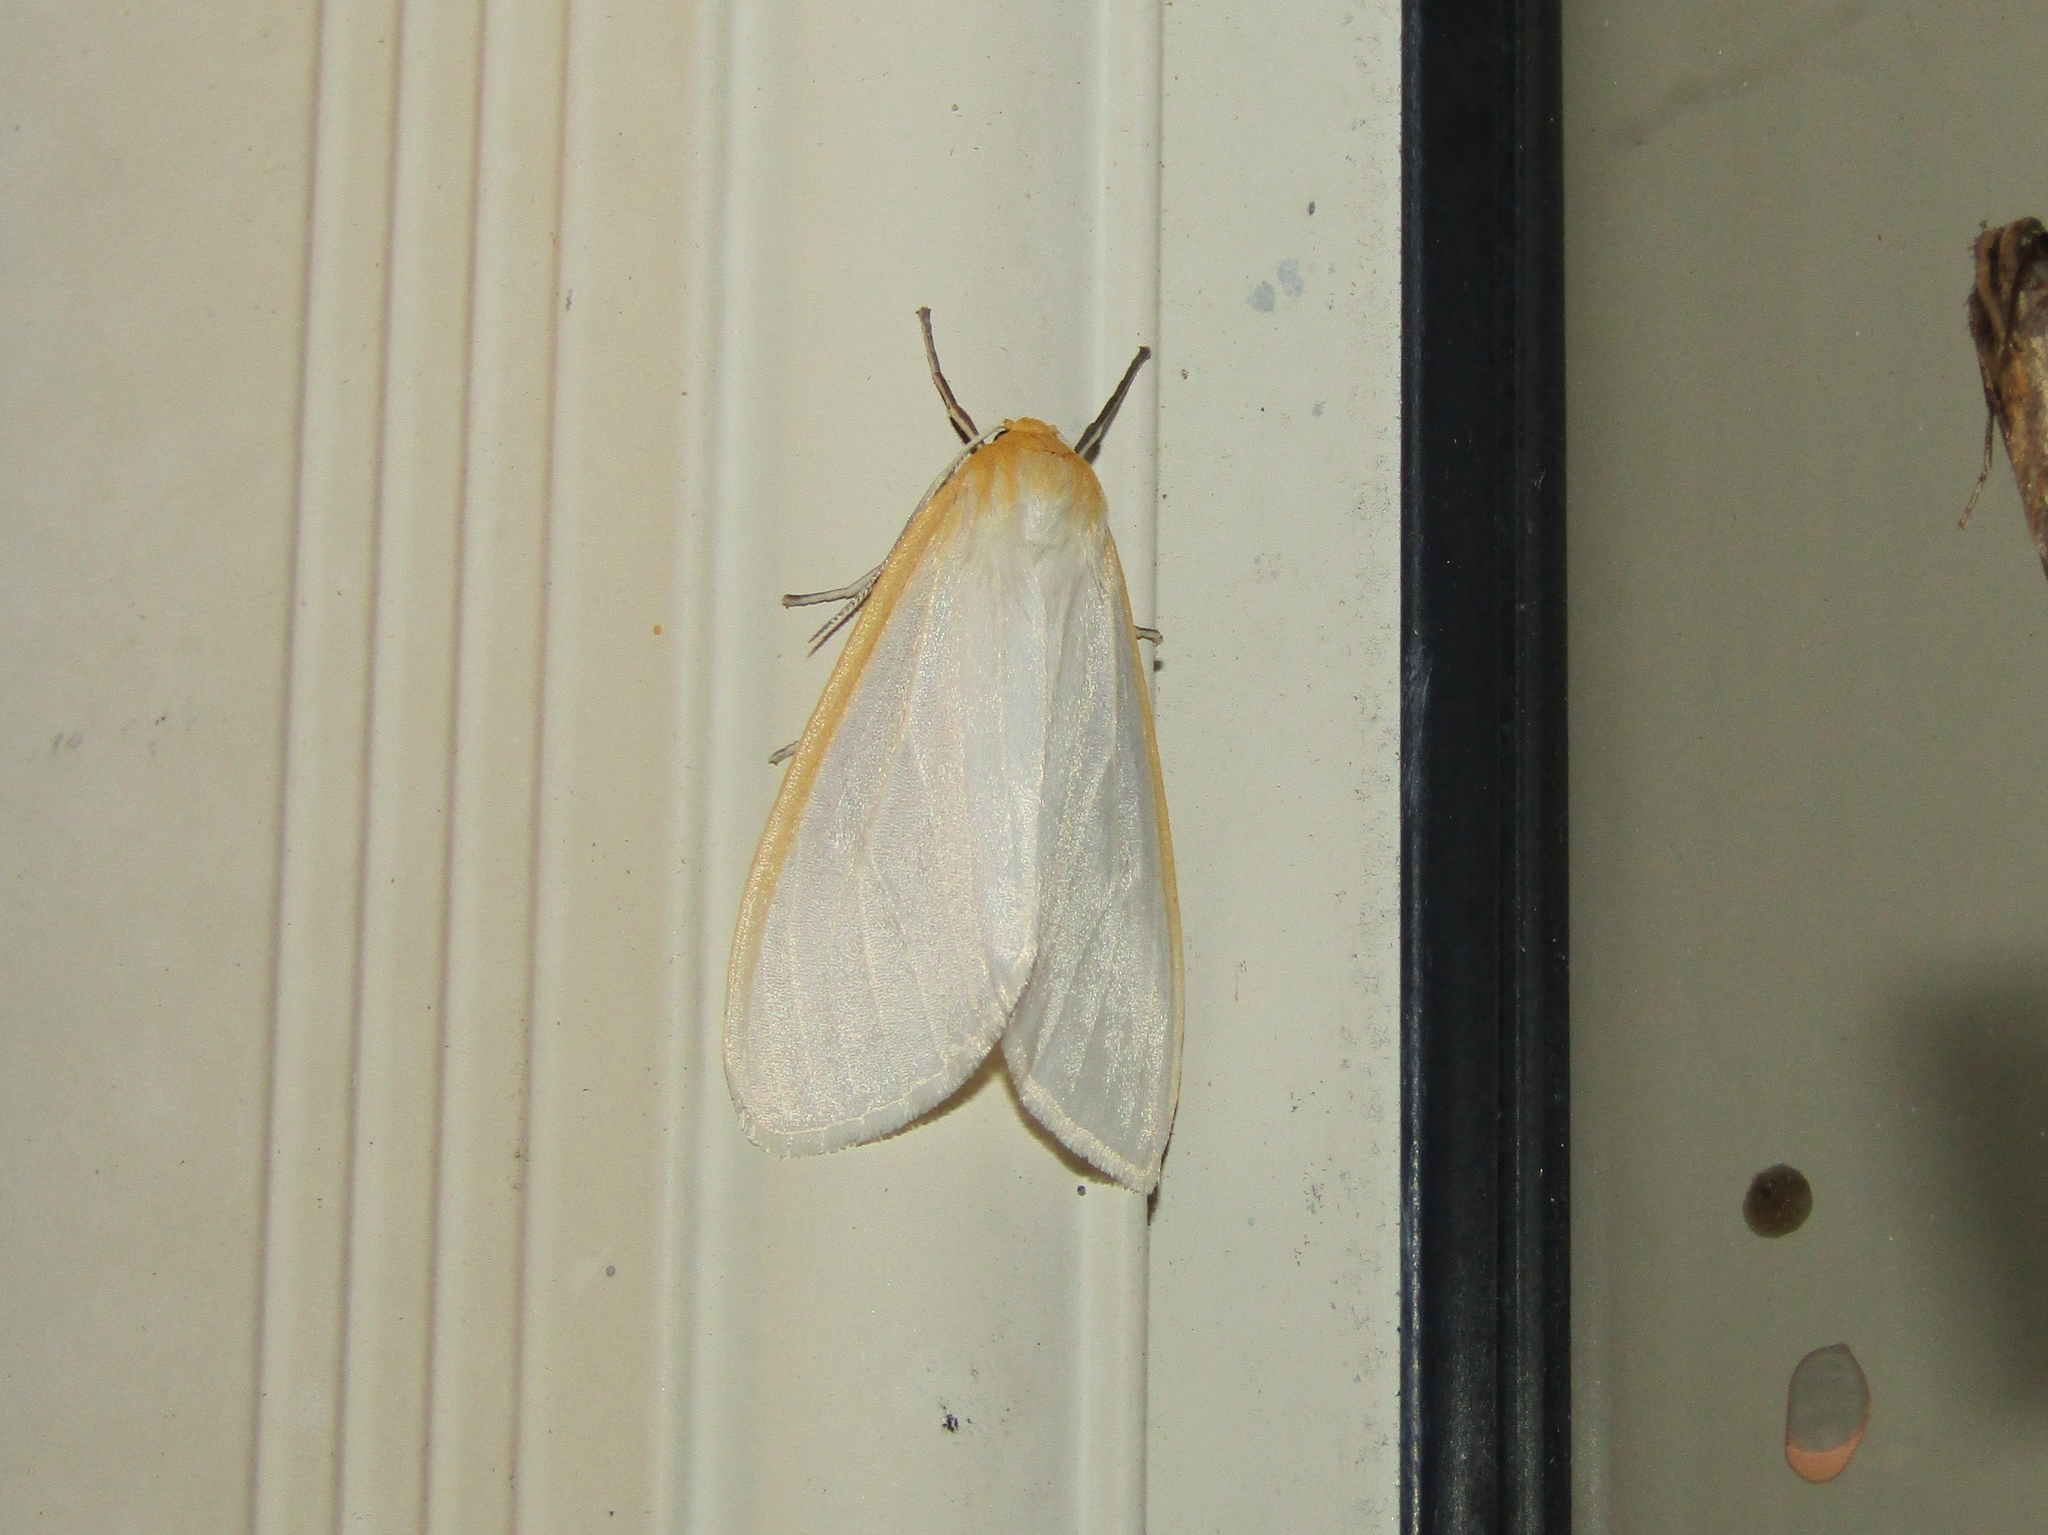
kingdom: Animalia
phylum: Arthropoda
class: Insecta
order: Lepidoptera
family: Erebidae
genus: Cycnia
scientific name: Cycnia tenera
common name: Delicate cycnia moth
